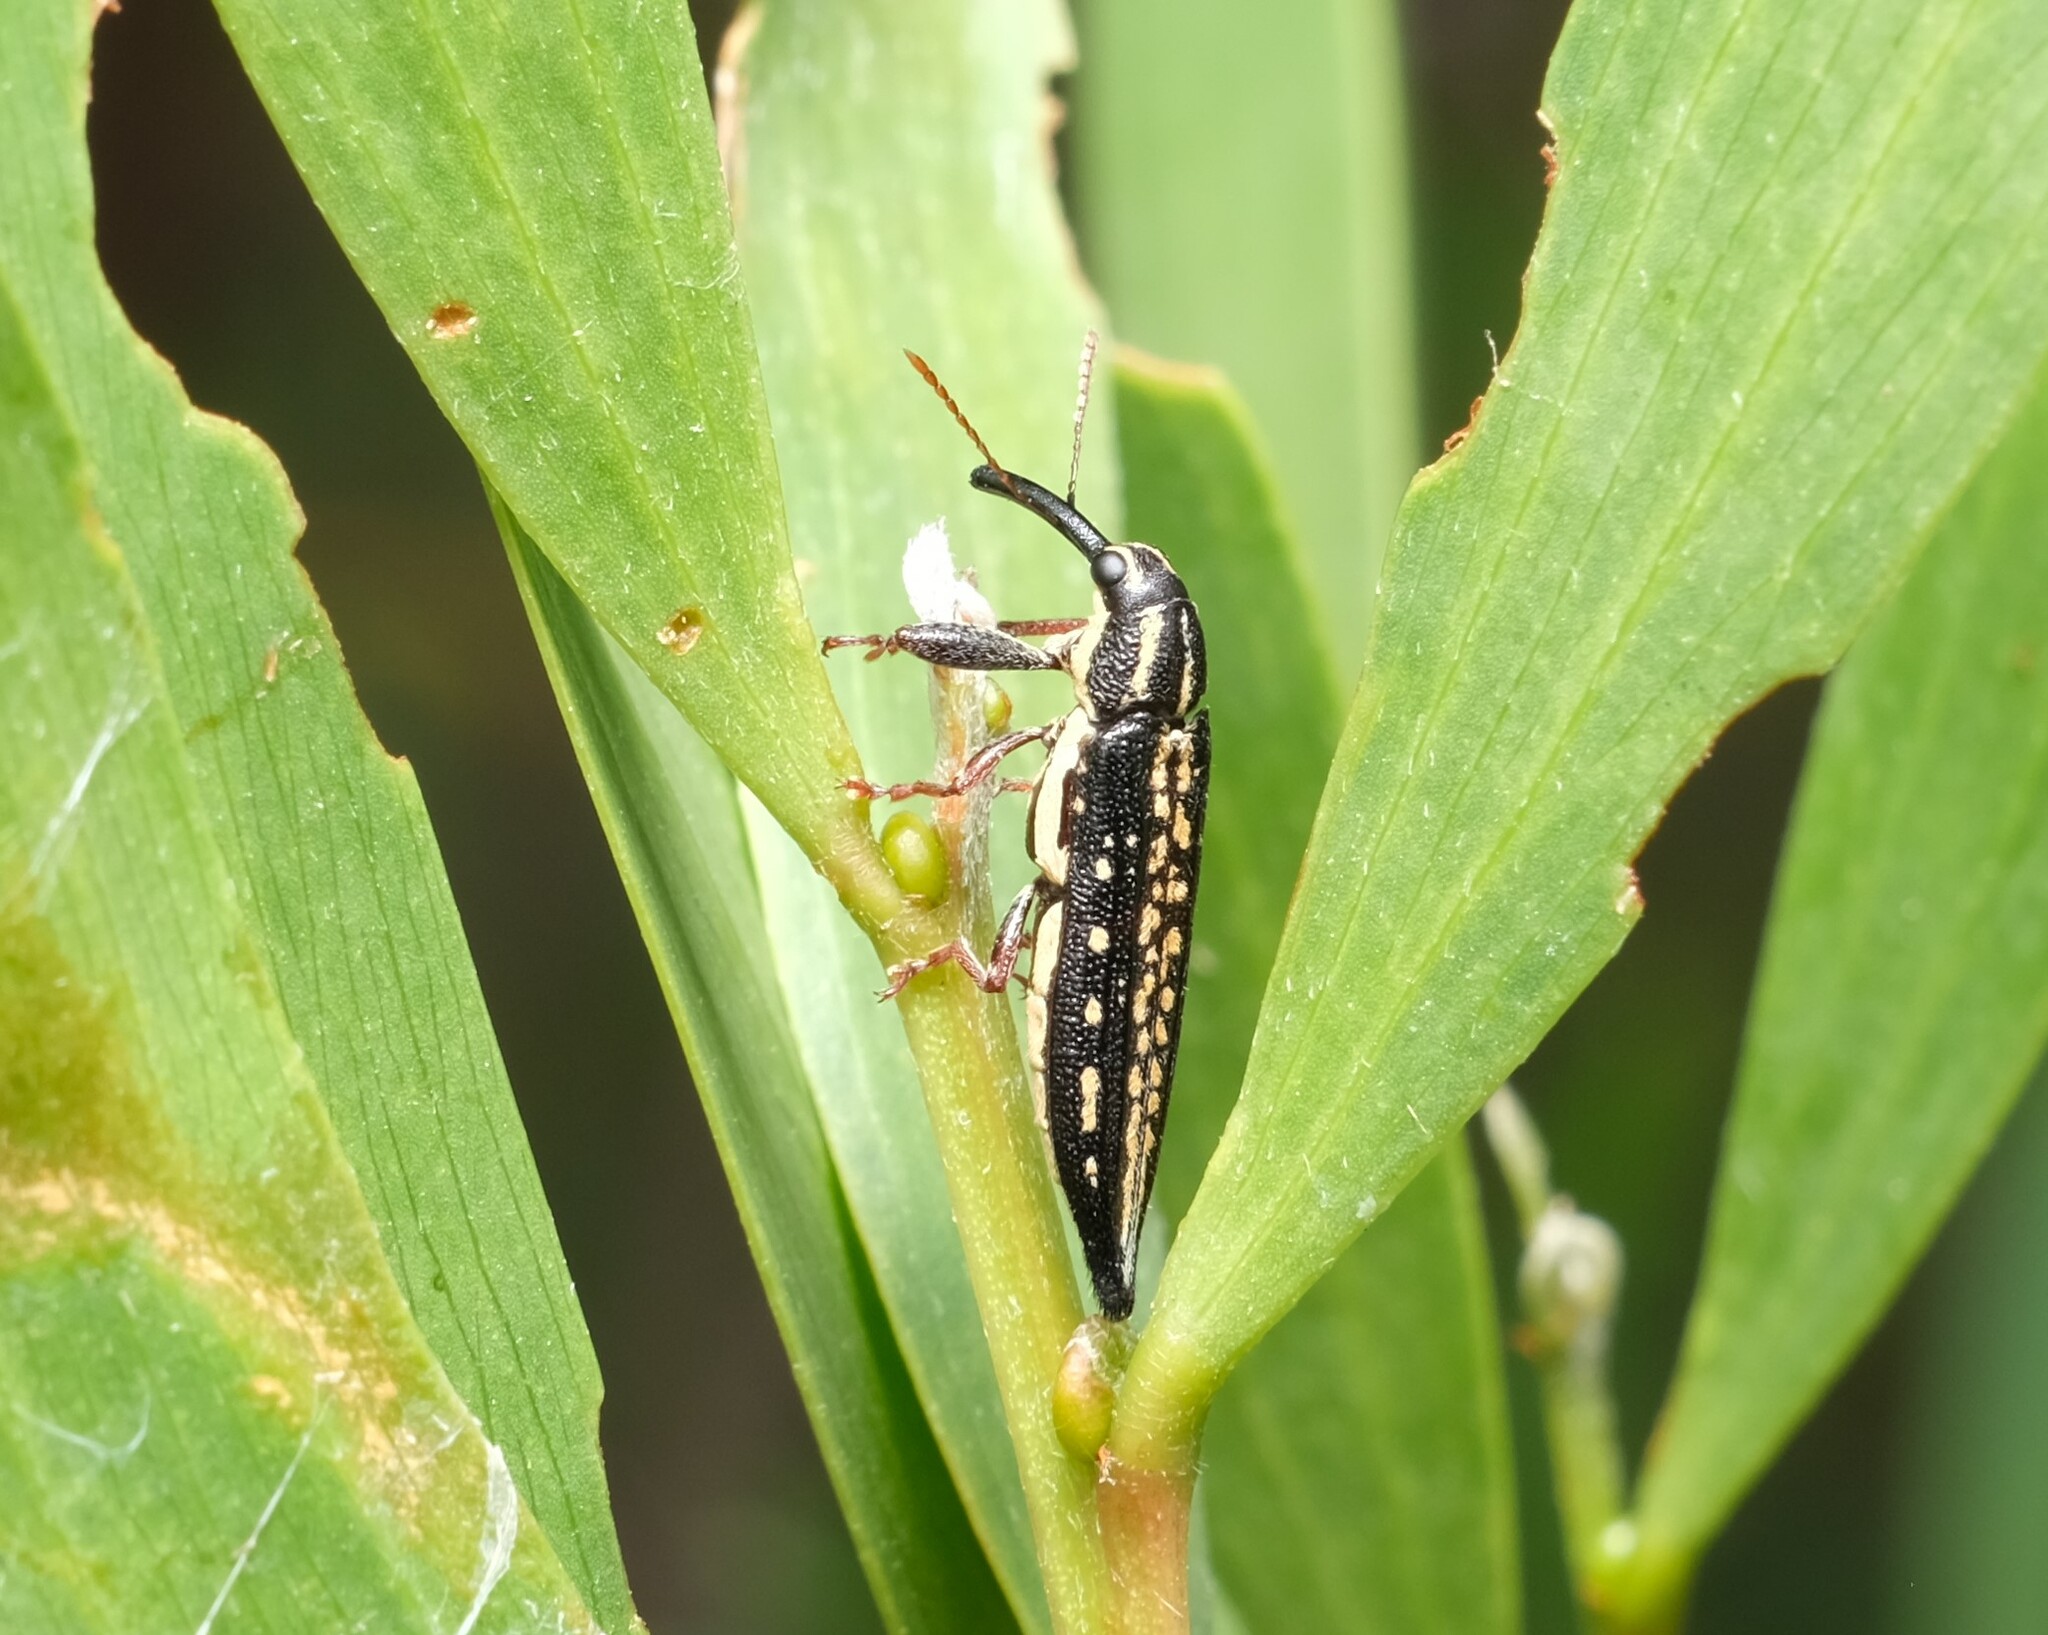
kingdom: Animalia
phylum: Arthropoda
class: Insecta
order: Coleoptera
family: Belidae
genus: Rhinotia
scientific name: Rhinotia lineata
